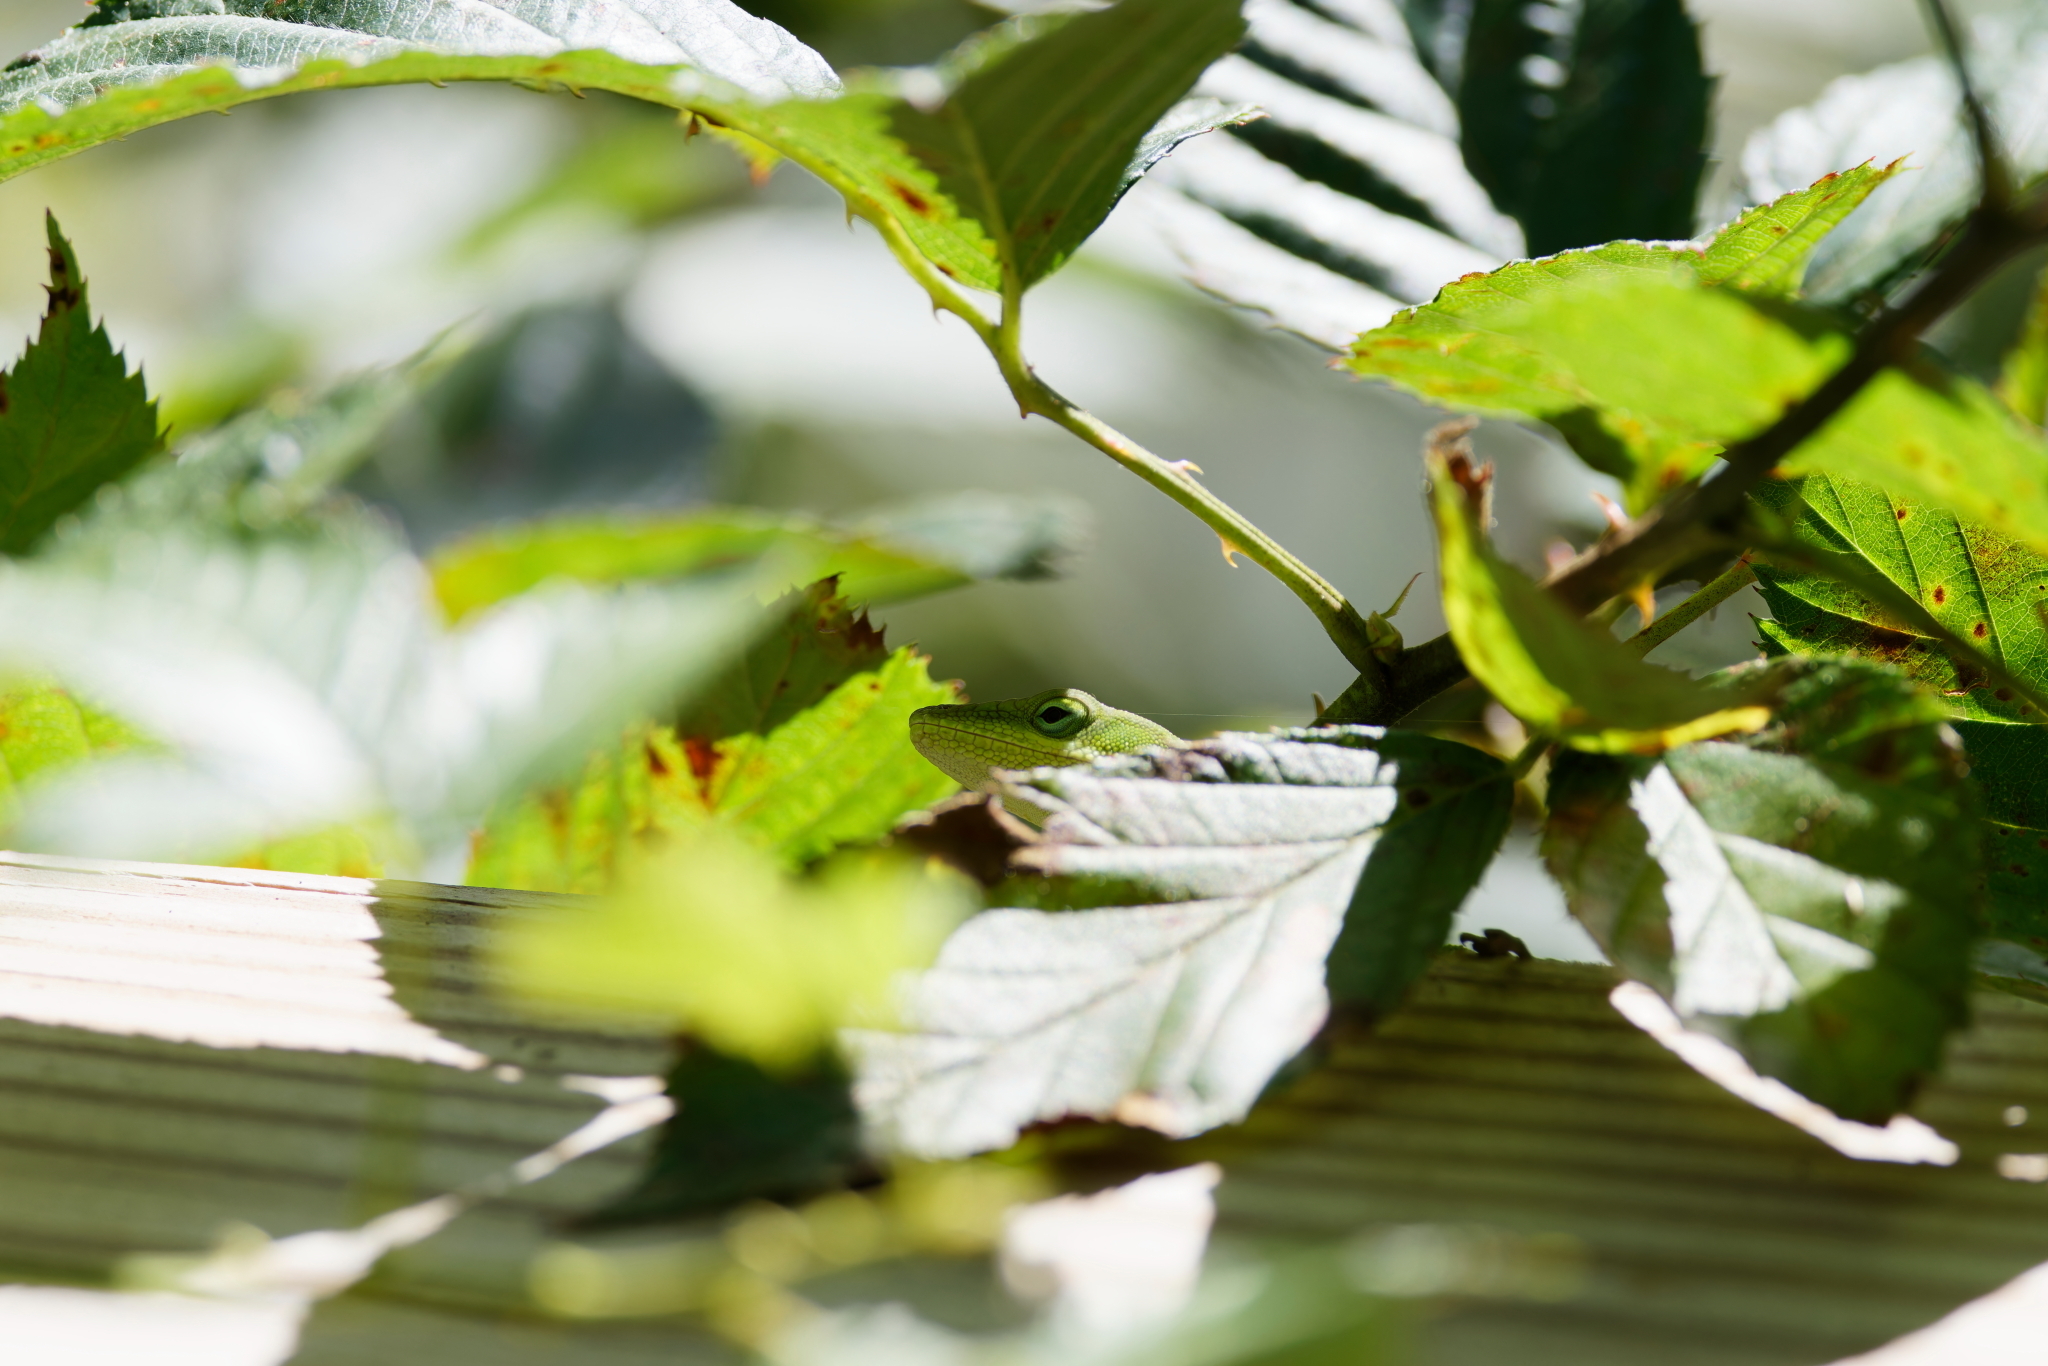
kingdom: Animalia
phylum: Chordata
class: Squamata
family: Dactyloidae
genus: Anolis
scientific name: Anolis carolinensis
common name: Green anole
